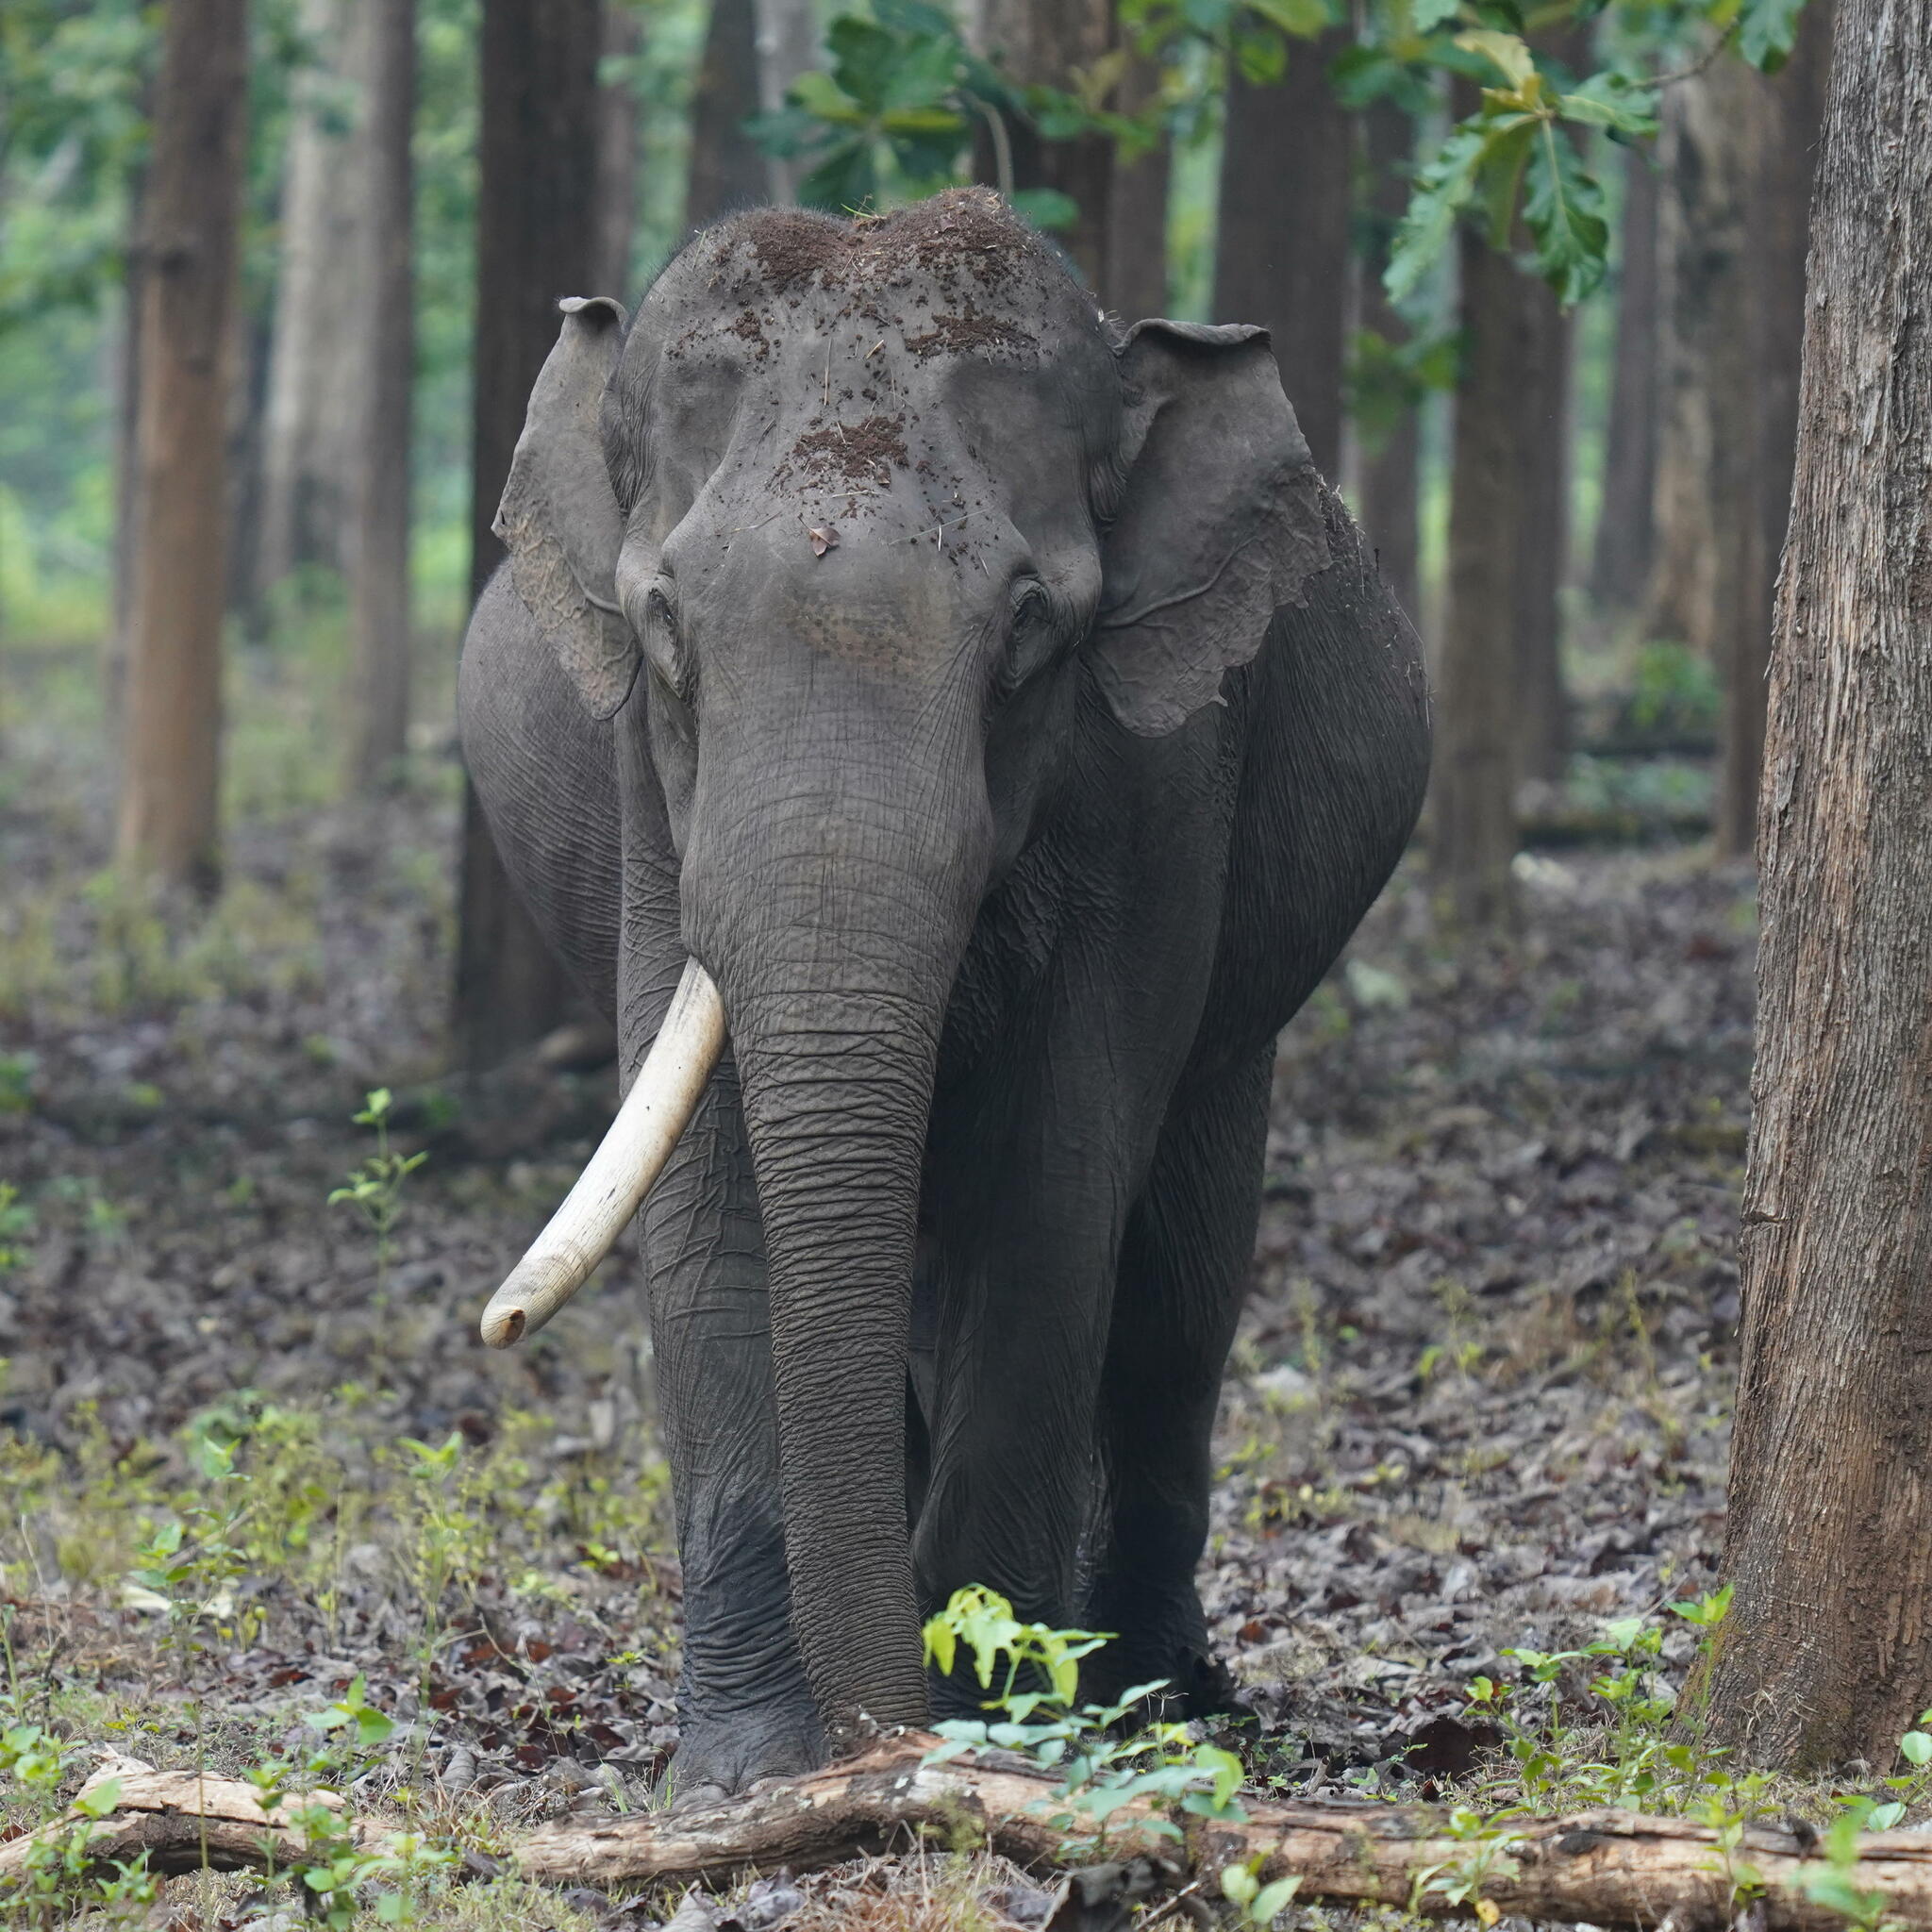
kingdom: Animalia
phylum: Chordata
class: Mammalia
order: Proboscidea
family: Elephantidae
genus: Elephas
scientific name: Elephas maximus
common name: Asian elephant
